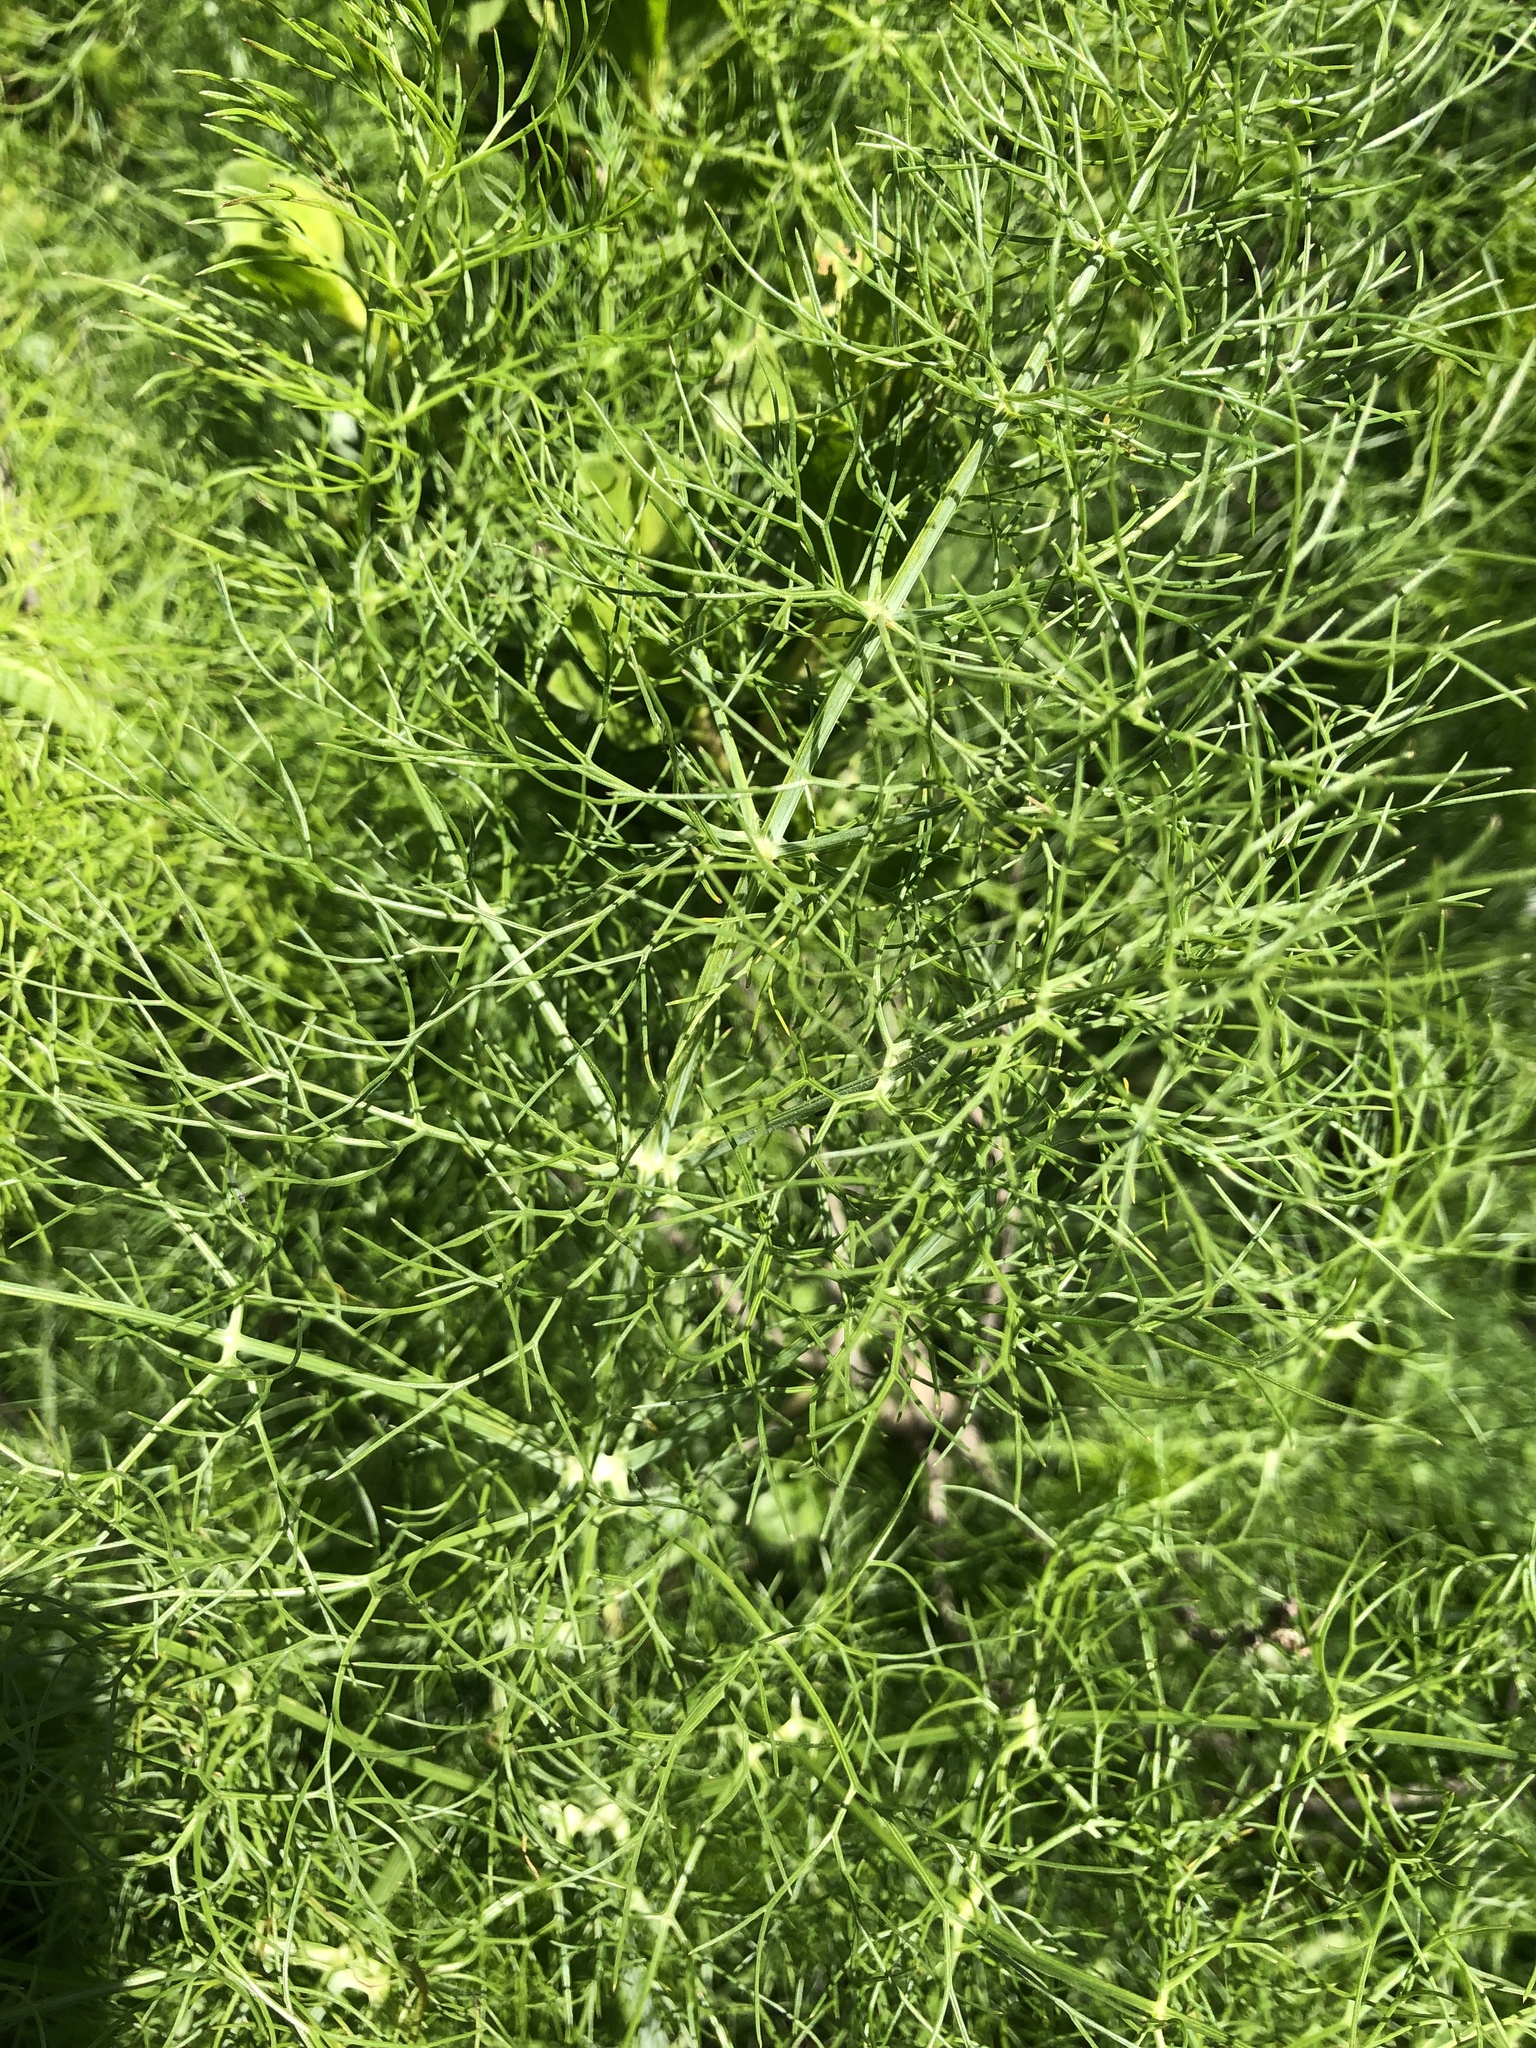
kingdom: Plantae
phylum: Tracheophyta
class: Magnoliopsida
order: Apiales
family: Apiaceae
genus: Foeniculum
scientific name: Foeniculum vulgare
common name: Fennel
